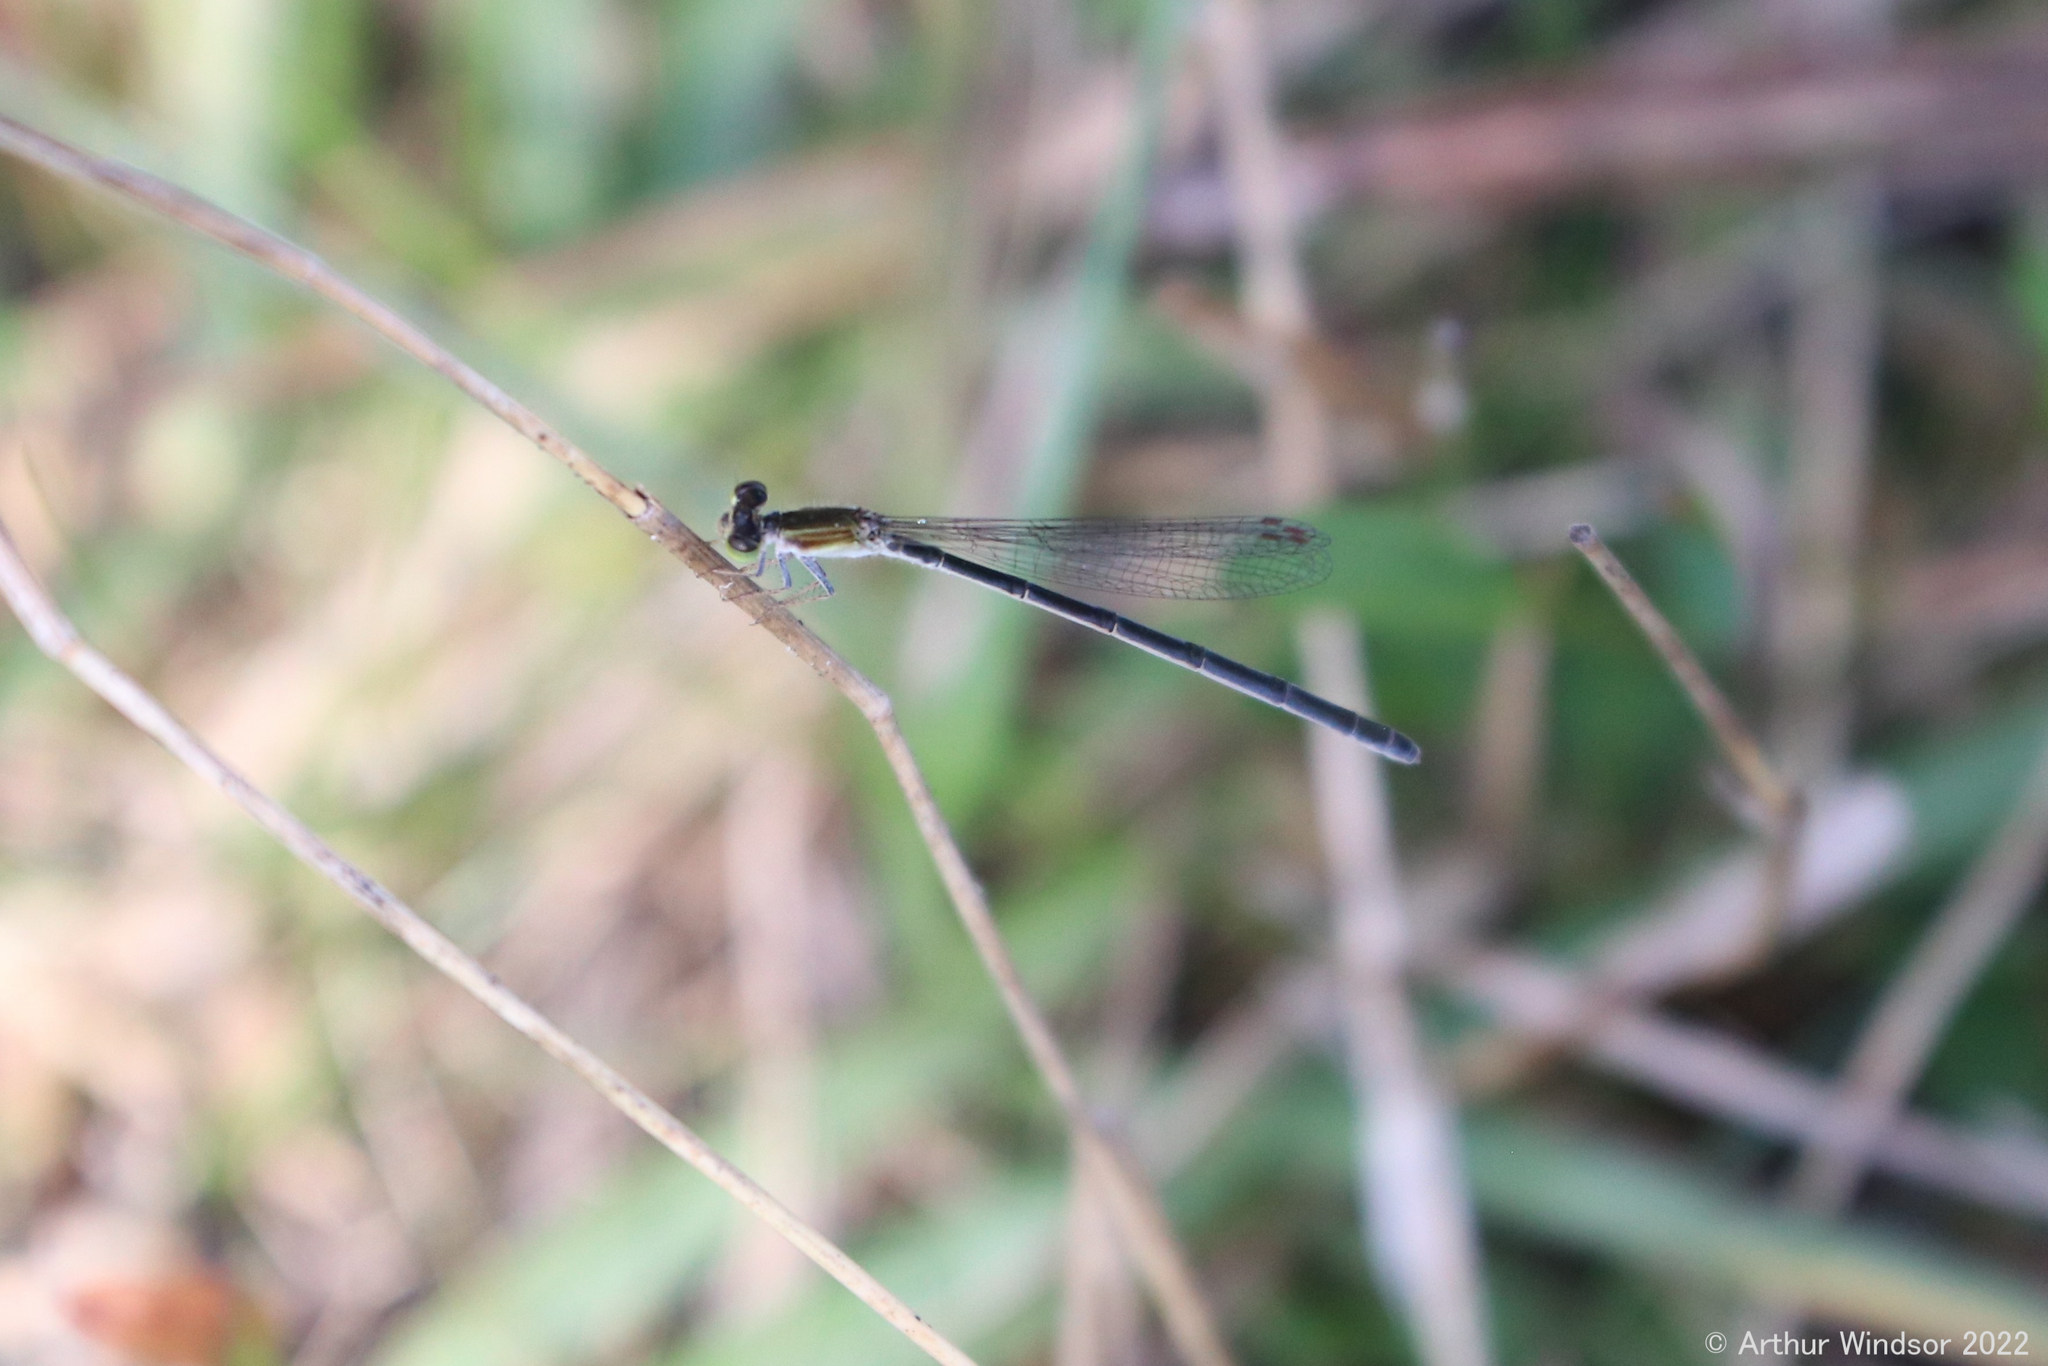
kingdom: Animalia
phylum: Arthropoda
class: Insecta
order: Odonata
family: Coenagrionidae
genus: Ischnura
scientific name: Ischnura hastata
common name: Citrine forktail
